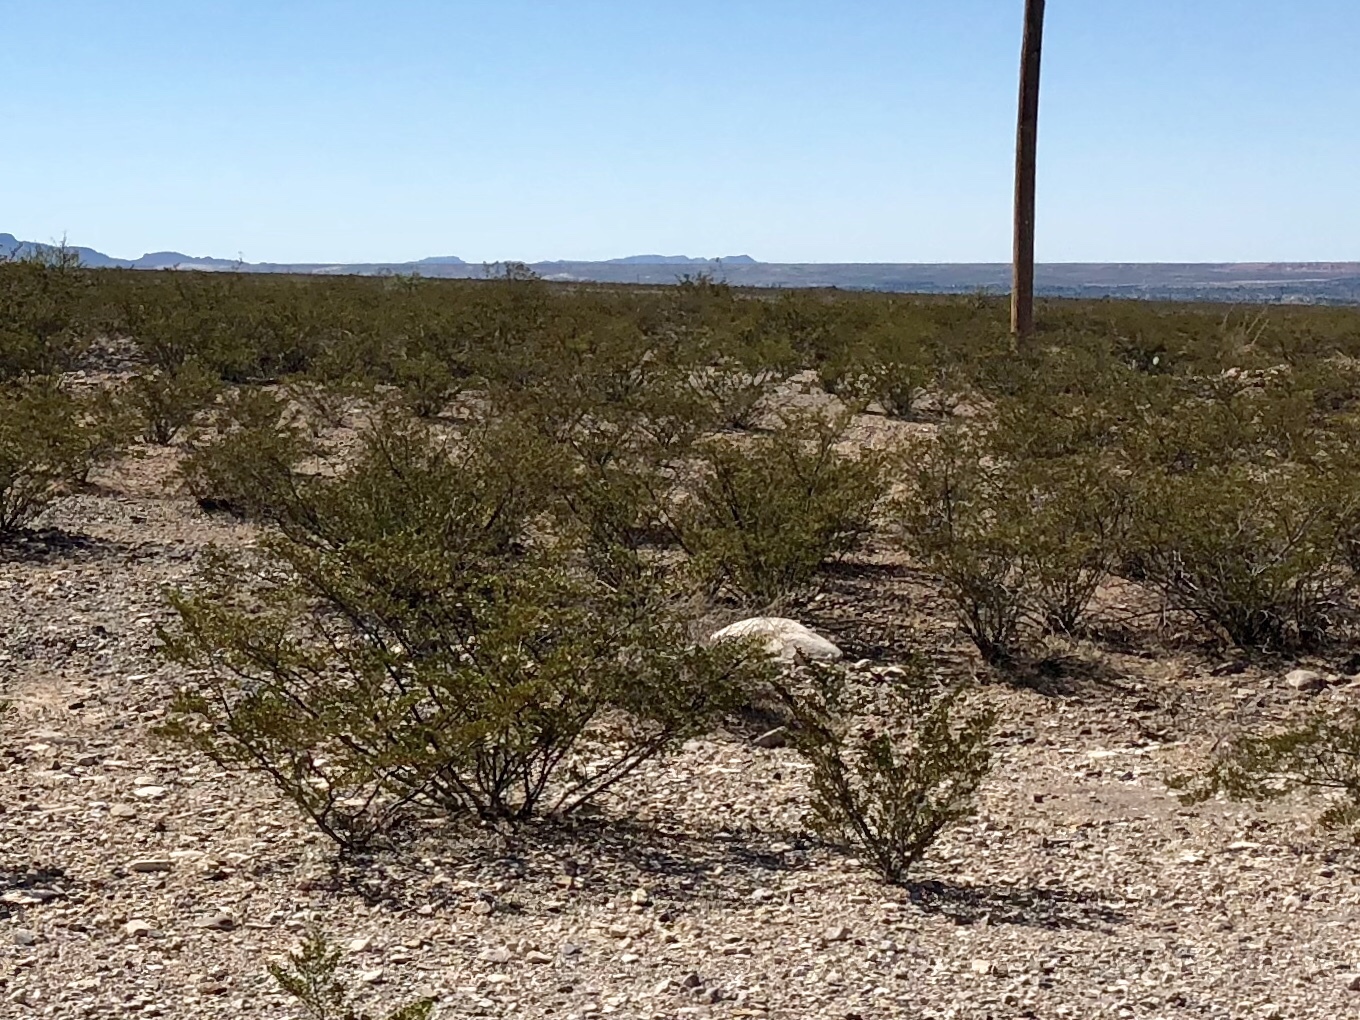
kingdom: Plantae
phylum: Tracheophyta
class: Magnoliopsida
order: Zygophyllales
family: Zygophyllaceae
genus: Larrea
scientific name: Larrea tridentata
